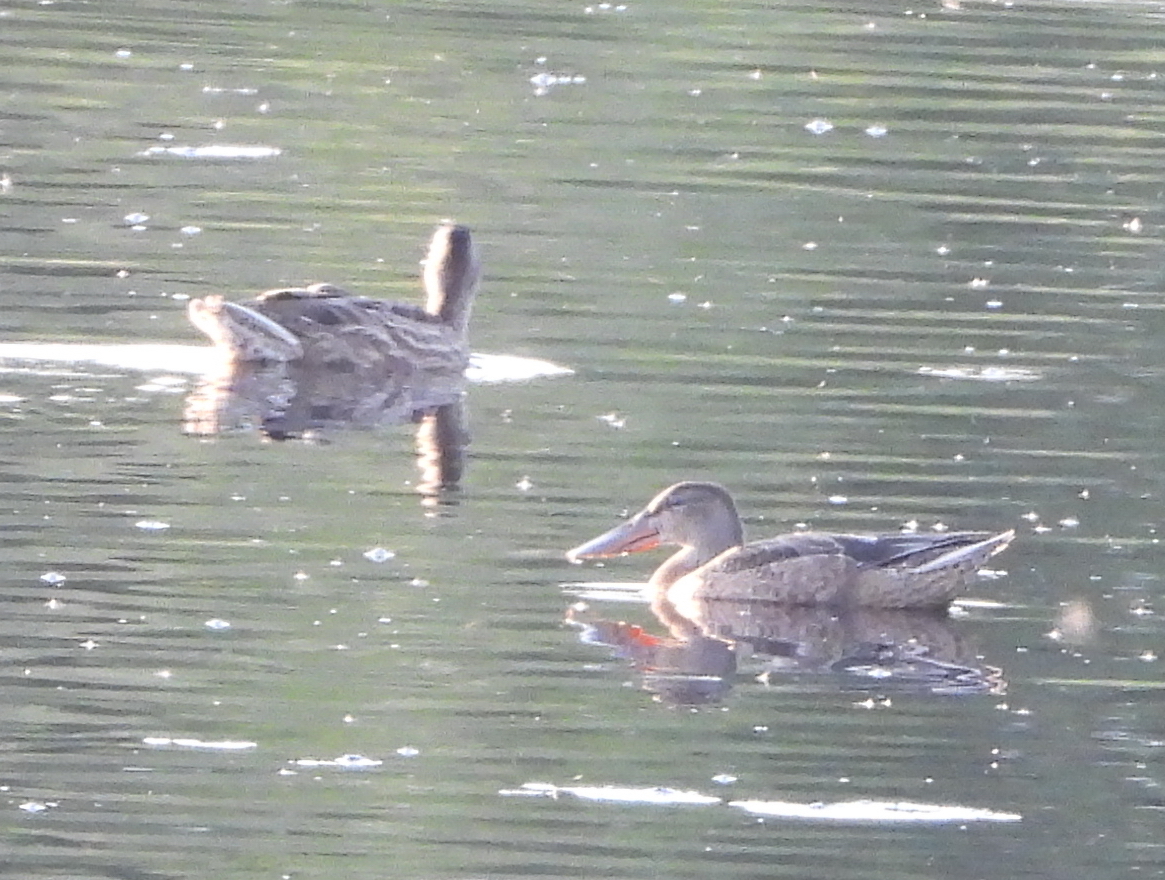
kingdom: Animalia
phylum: Chordata
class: Aves
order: Anseriformes
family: Anatidae
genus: Spatula
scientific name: Spatula clypeata
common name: Northern shoveler
